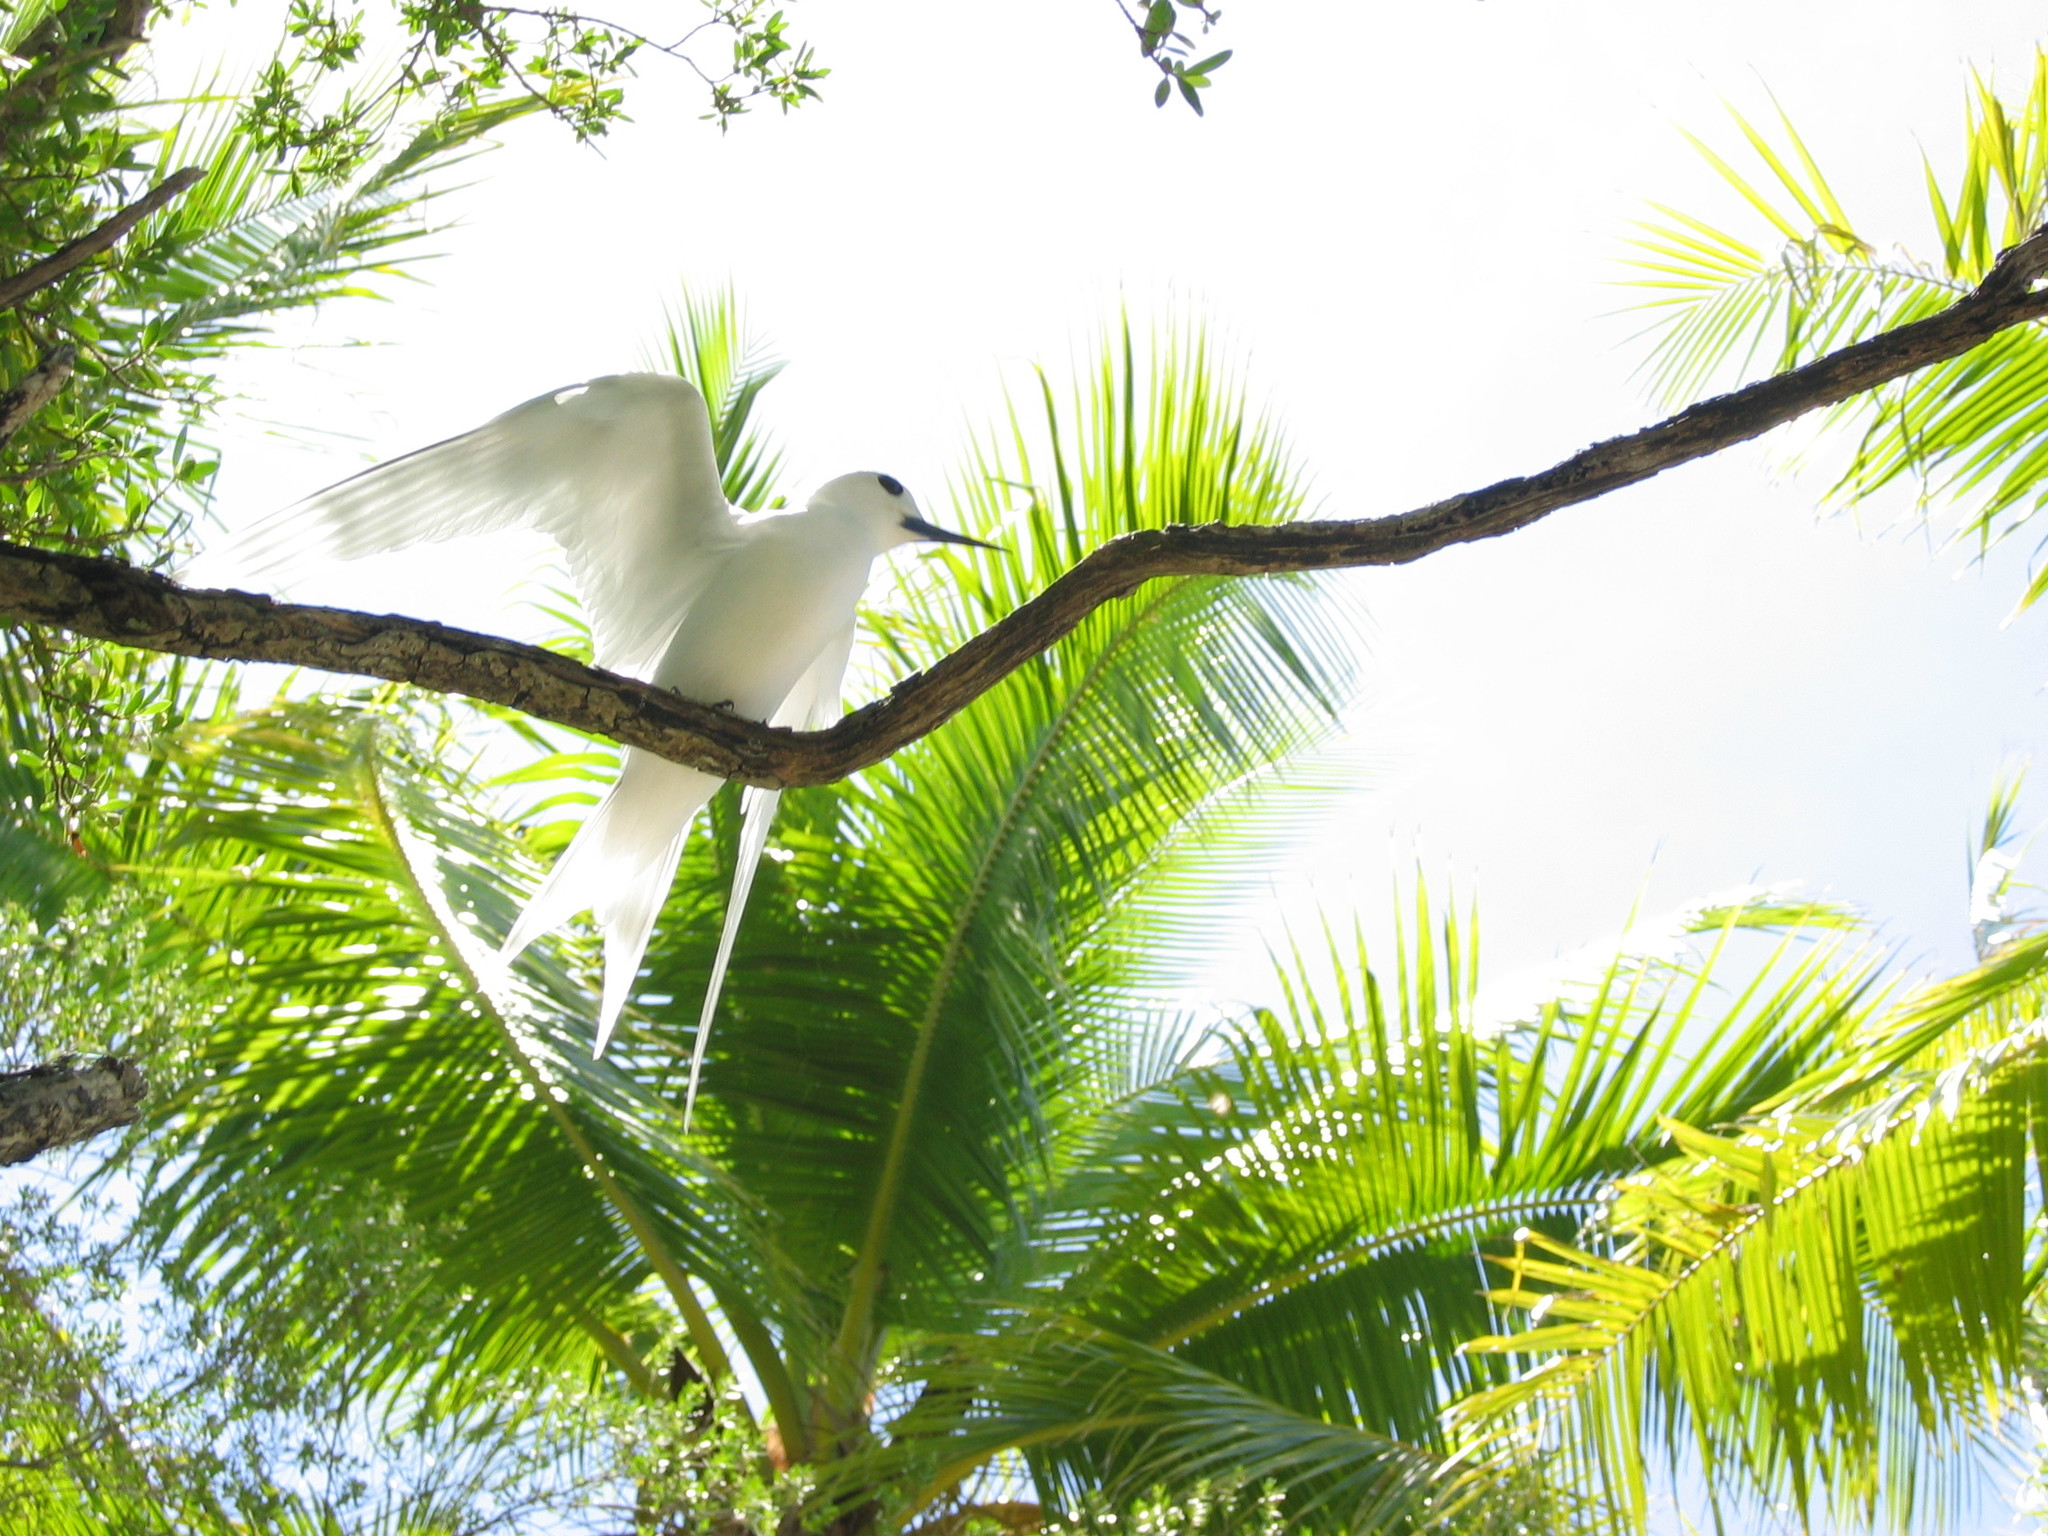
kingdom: Animalia
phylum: Chordata
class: Aves
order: Charadriiformes
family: Laridae
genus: Gygis
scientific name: Gygis alba
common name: White tern
